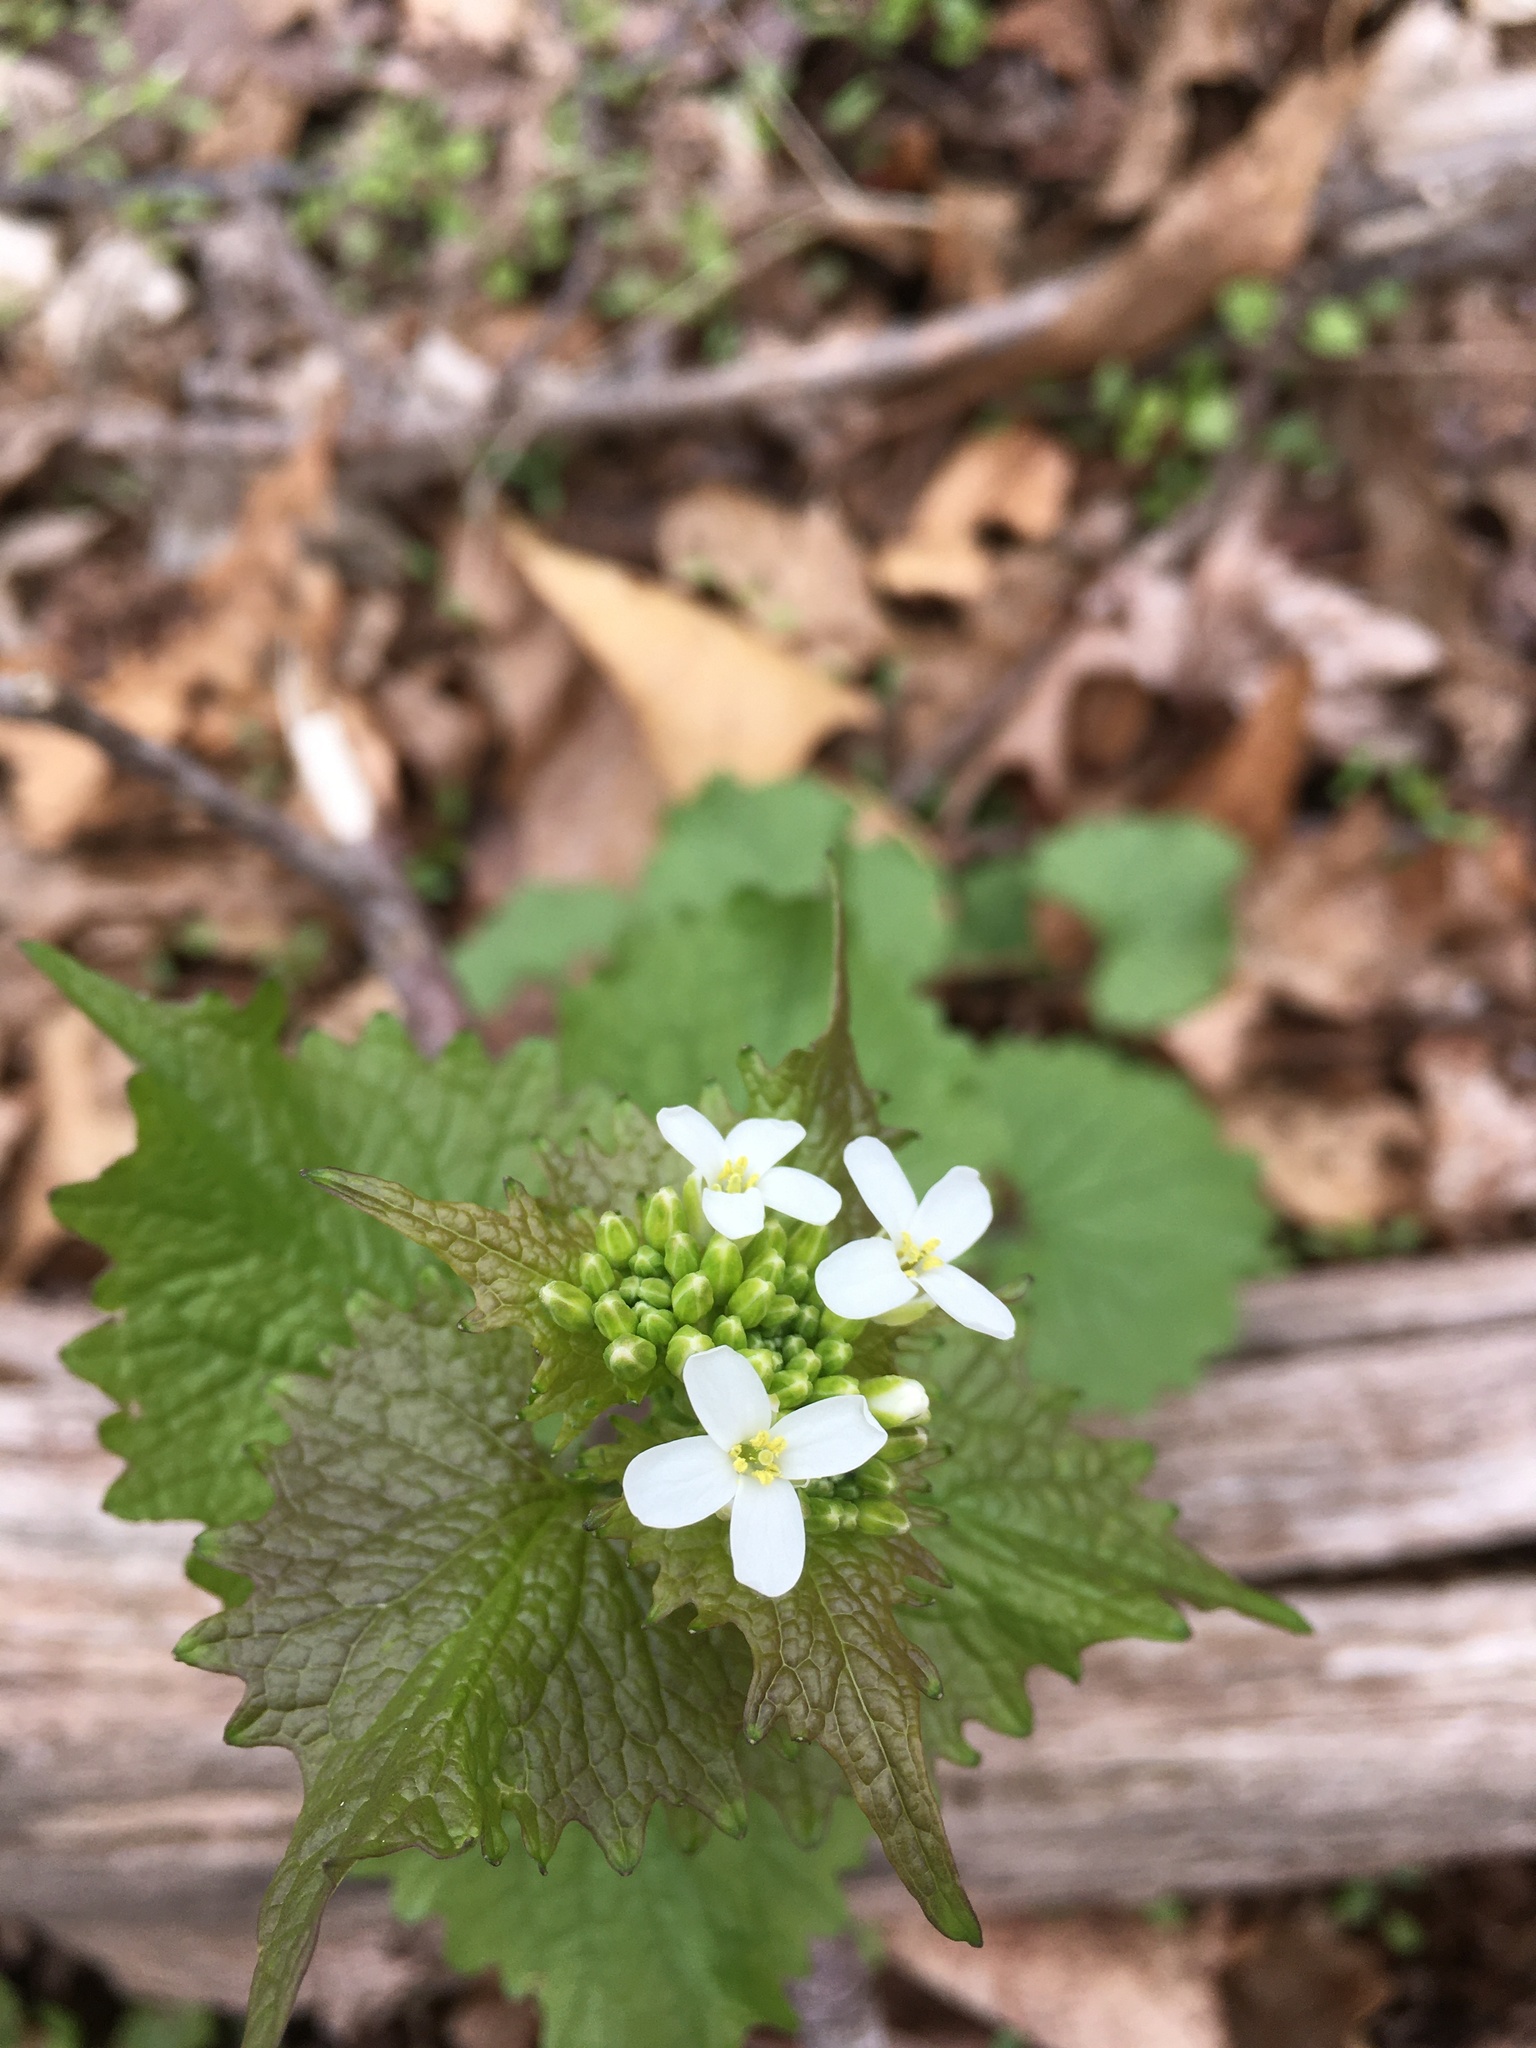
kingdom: Plantae
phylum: Tracheophyta
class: Magnoliopsida
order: Brassicales
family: Brassicaceae
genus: Alliaria
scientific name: Alliaria petiolata
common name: Garlic mustard
